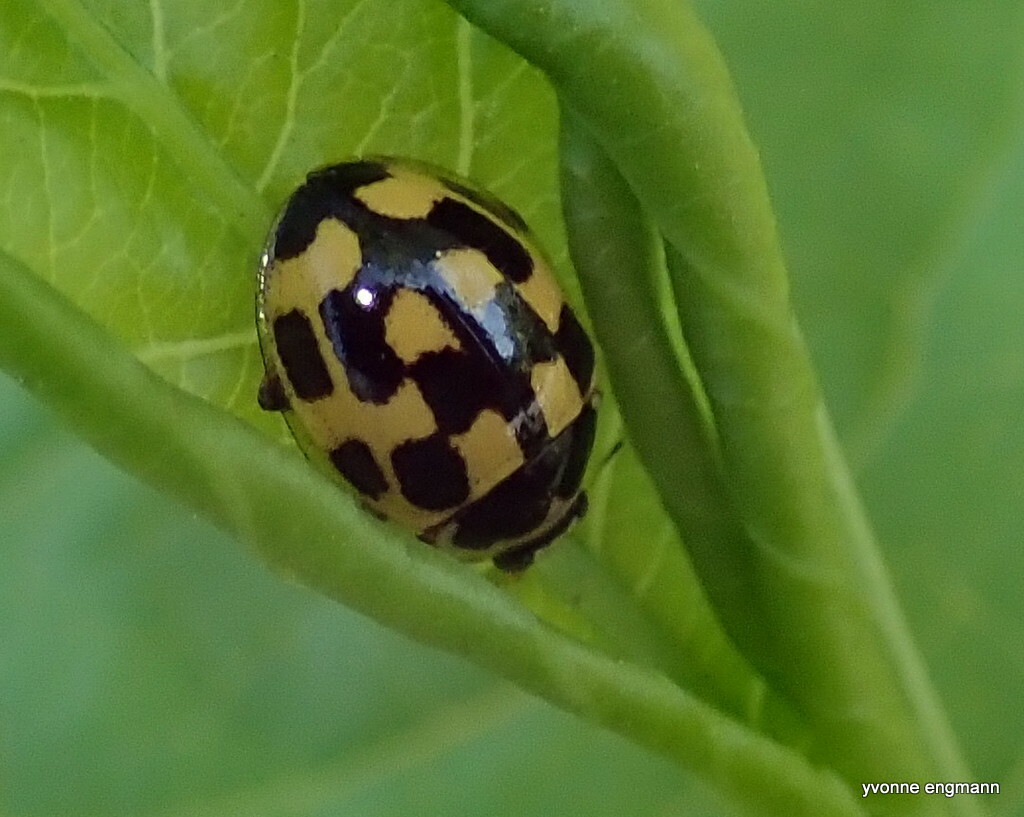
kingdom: Animalia
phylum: Arthropoda
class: Insecta
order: Coleoptera
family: Coccinellidae
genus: Propylaea
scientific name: Propylaea quatuordecimpunctata
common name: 14-spotted ladybird beetle
